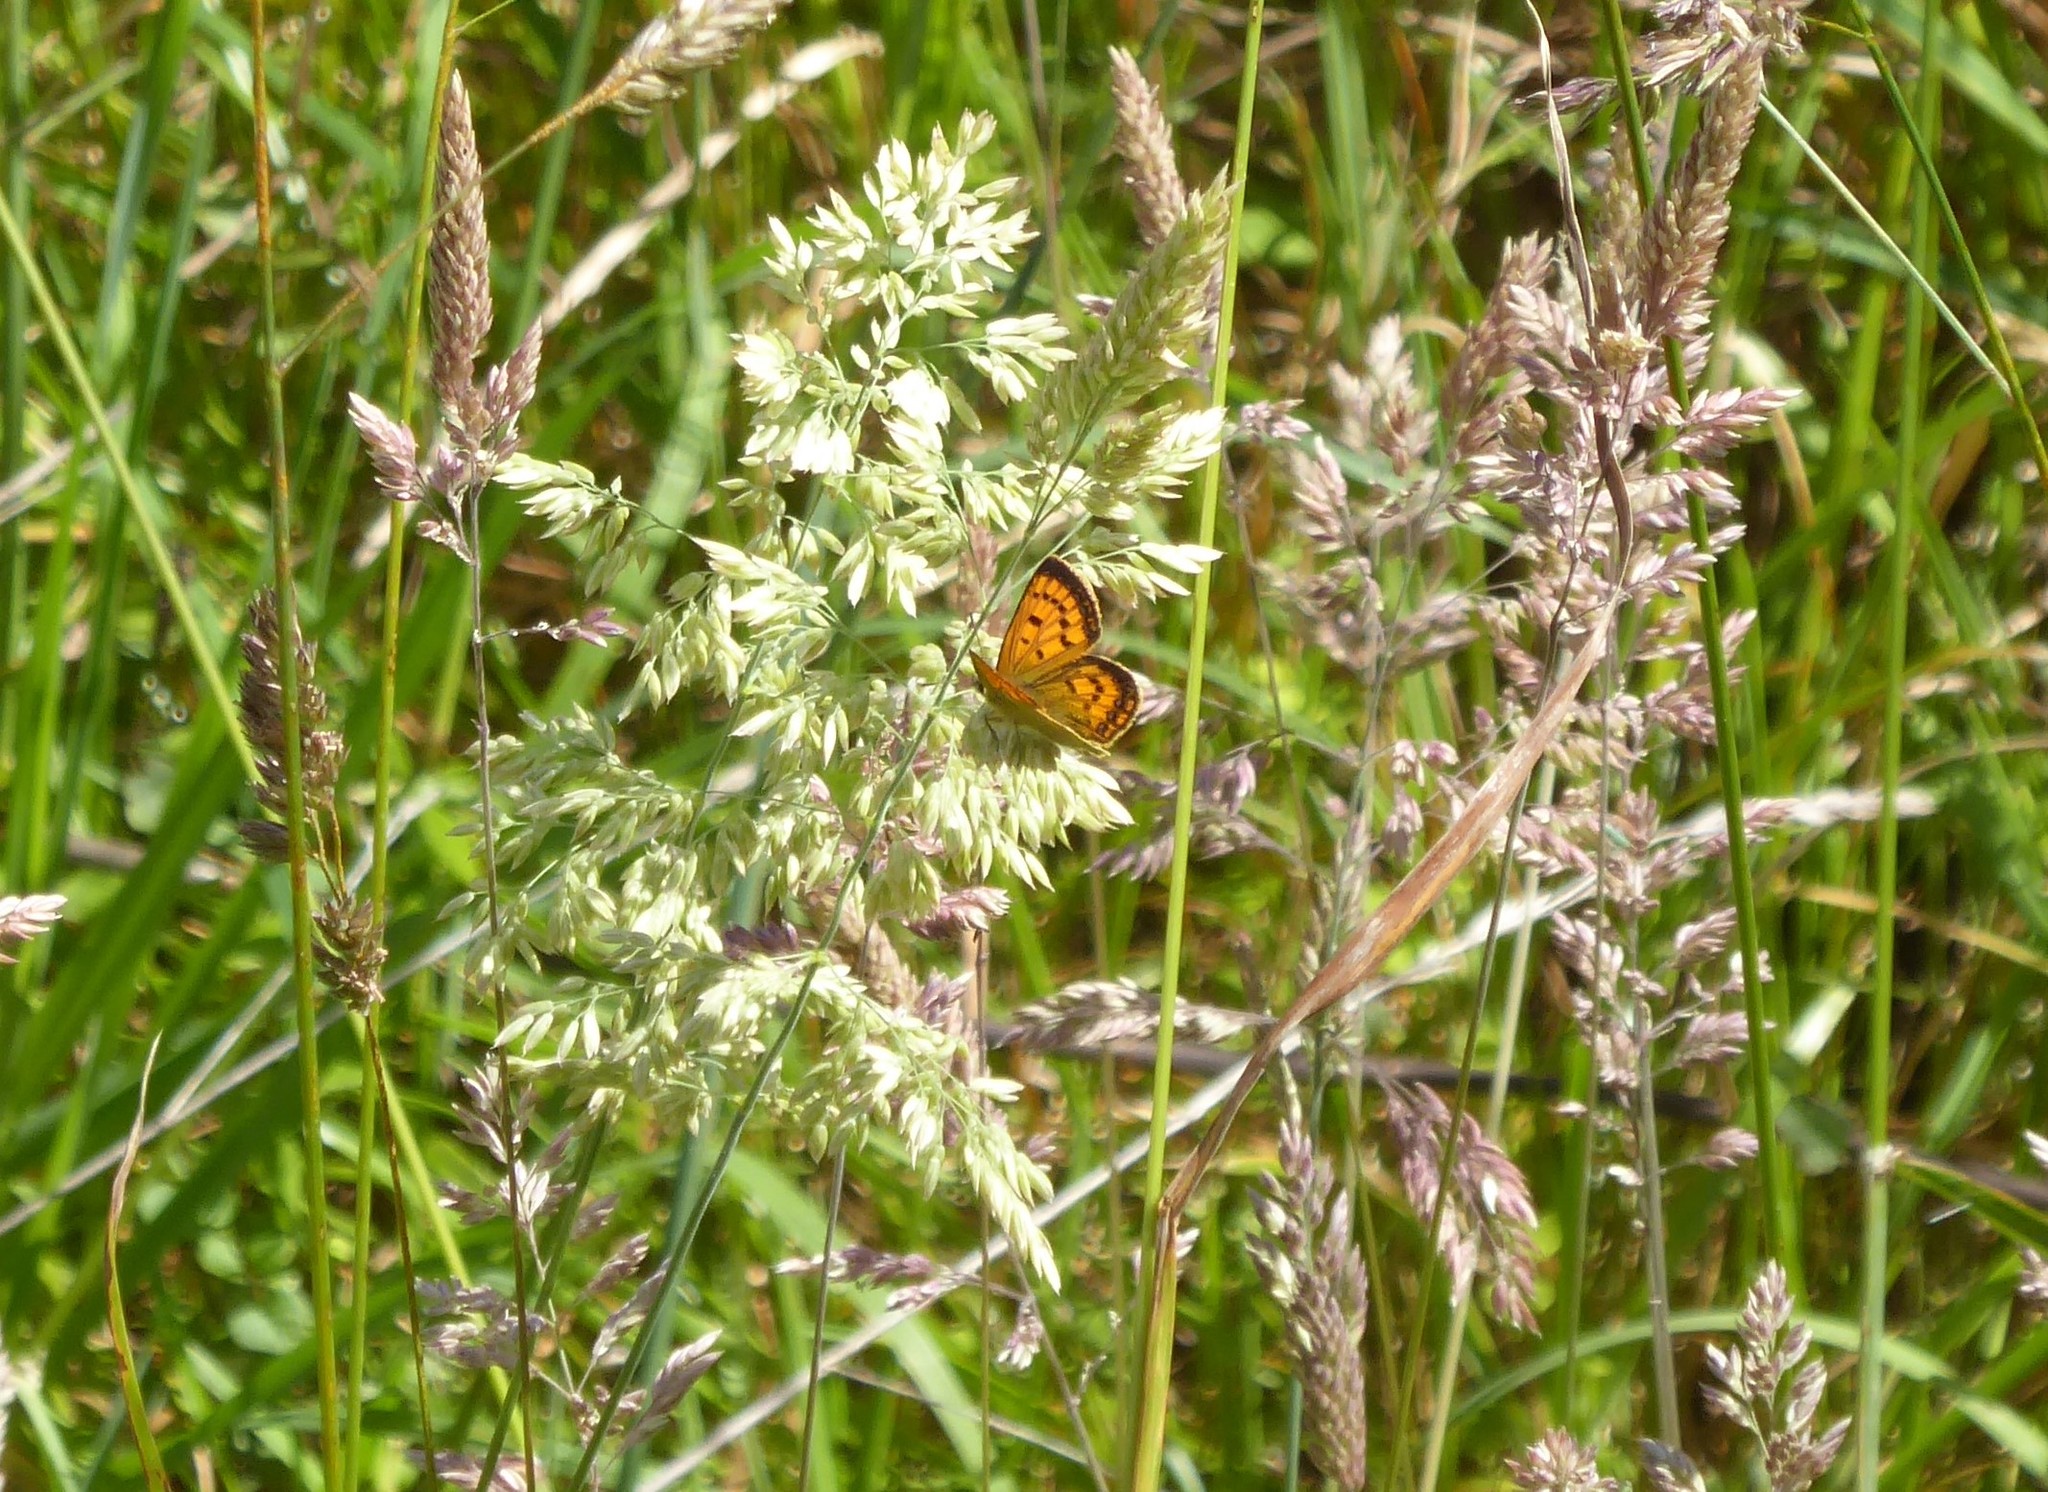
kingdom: Animalia
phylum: Arthropoda
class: Insecta
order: Lepidoptera
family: Lycaenidae
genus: Lycaena
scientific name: Lycaena
